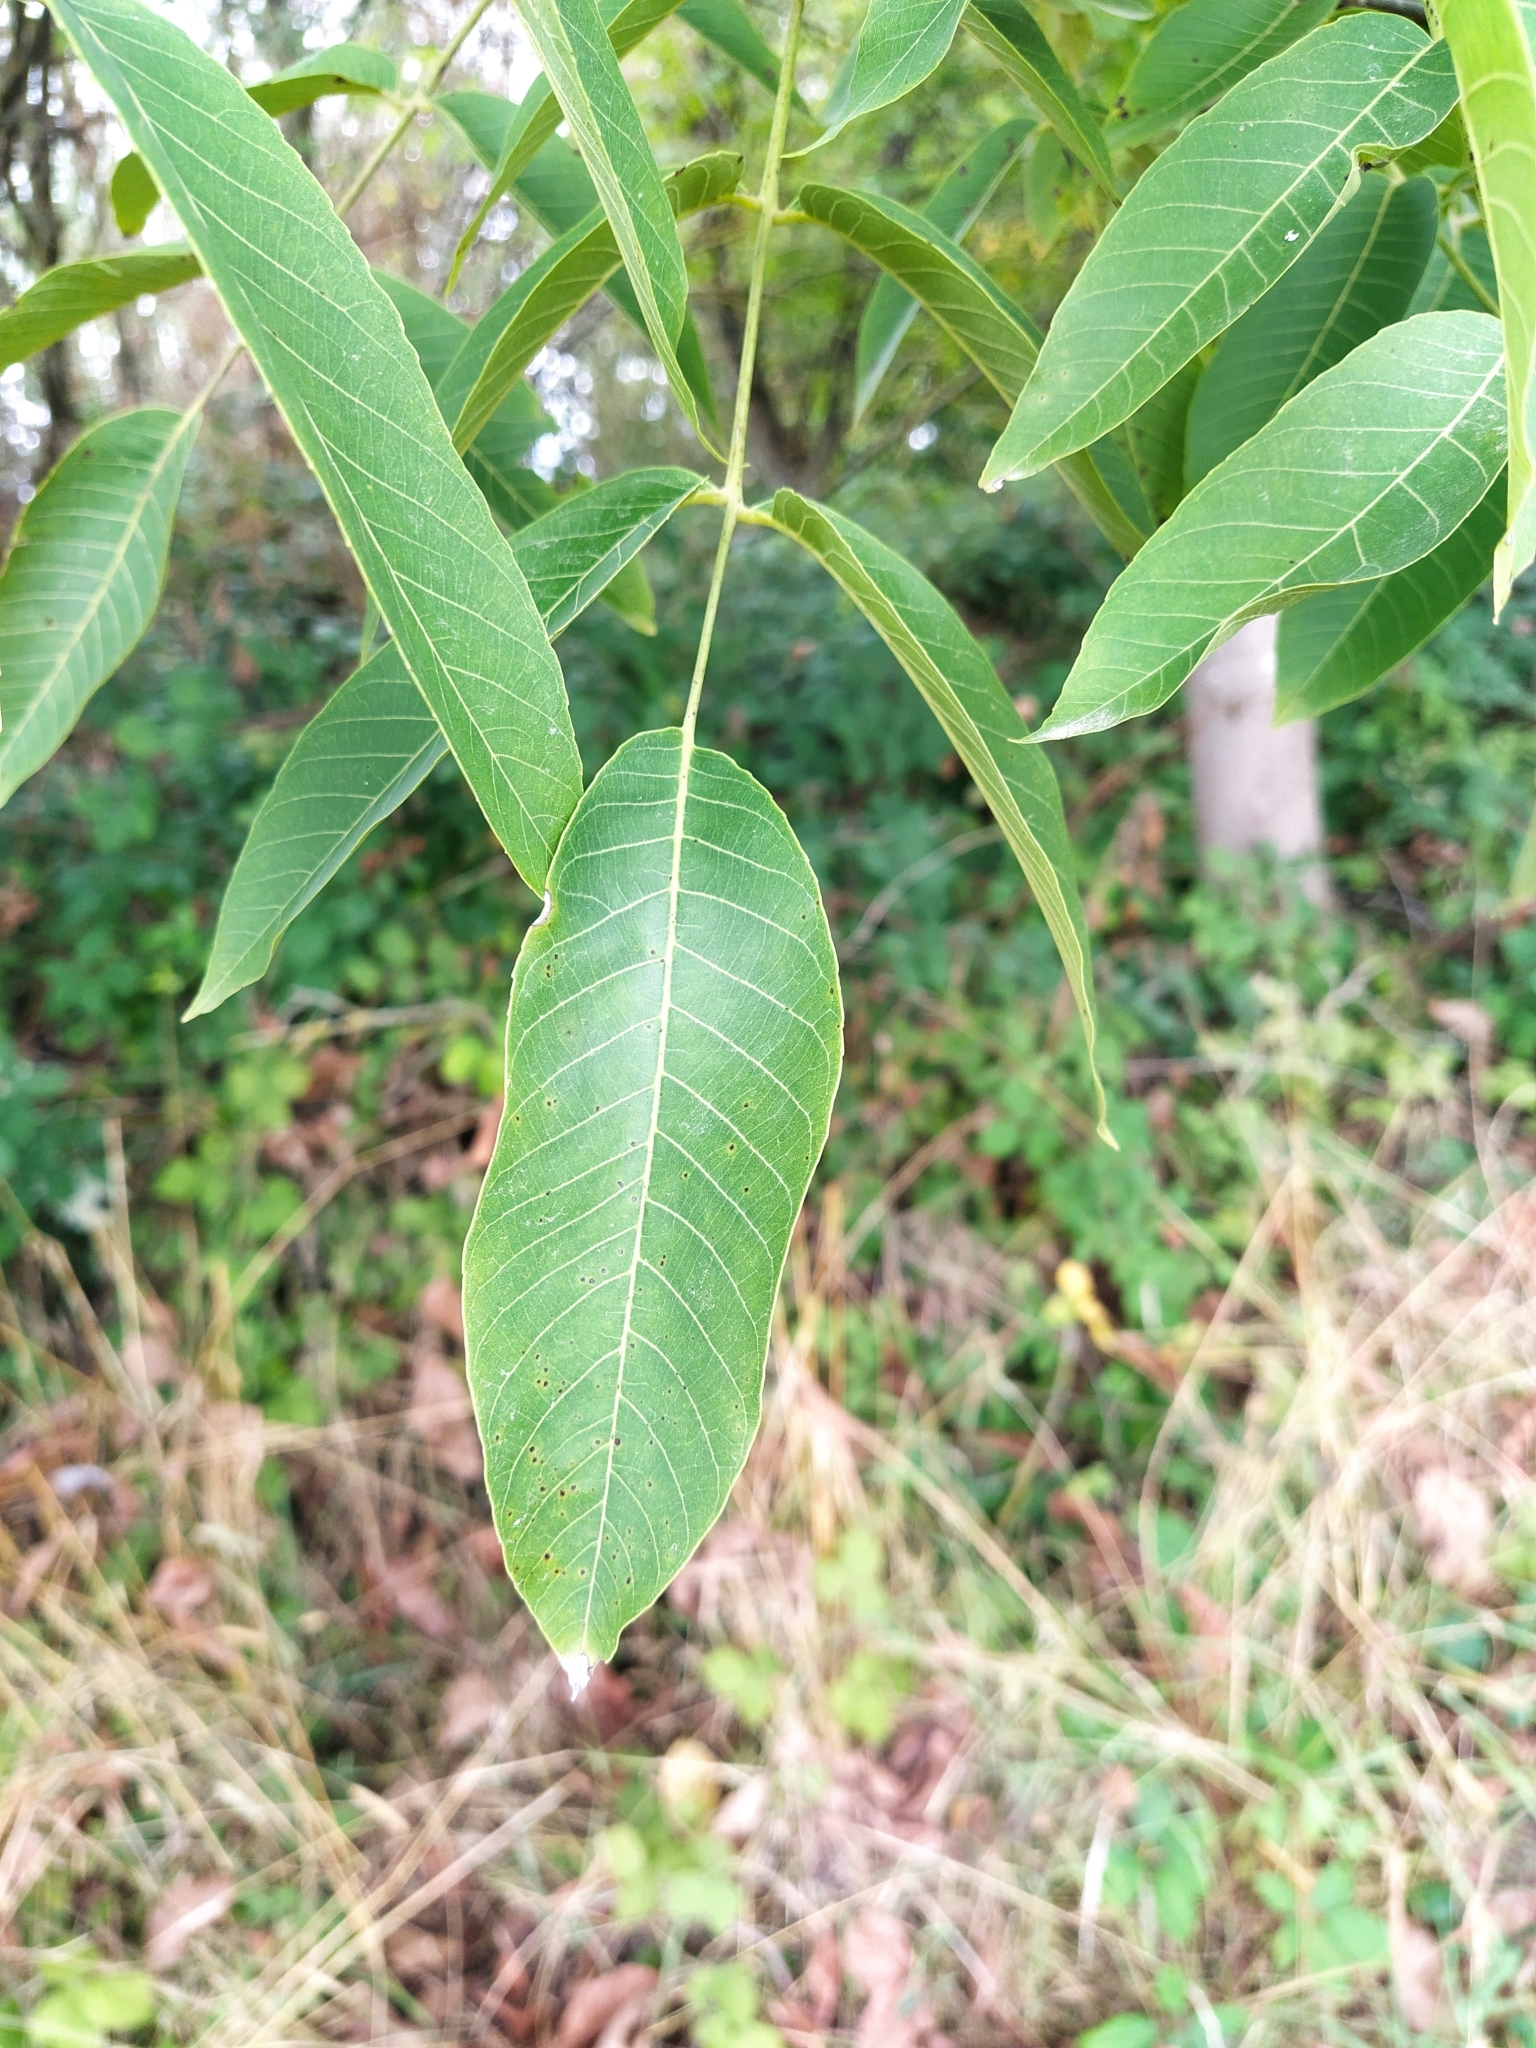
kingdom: Plantae
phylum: Tracheophyta
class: Magnoliopsida
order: Fagales
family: Juglandaceae
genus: Juglans
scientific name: Juglans regia
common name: Walnut
